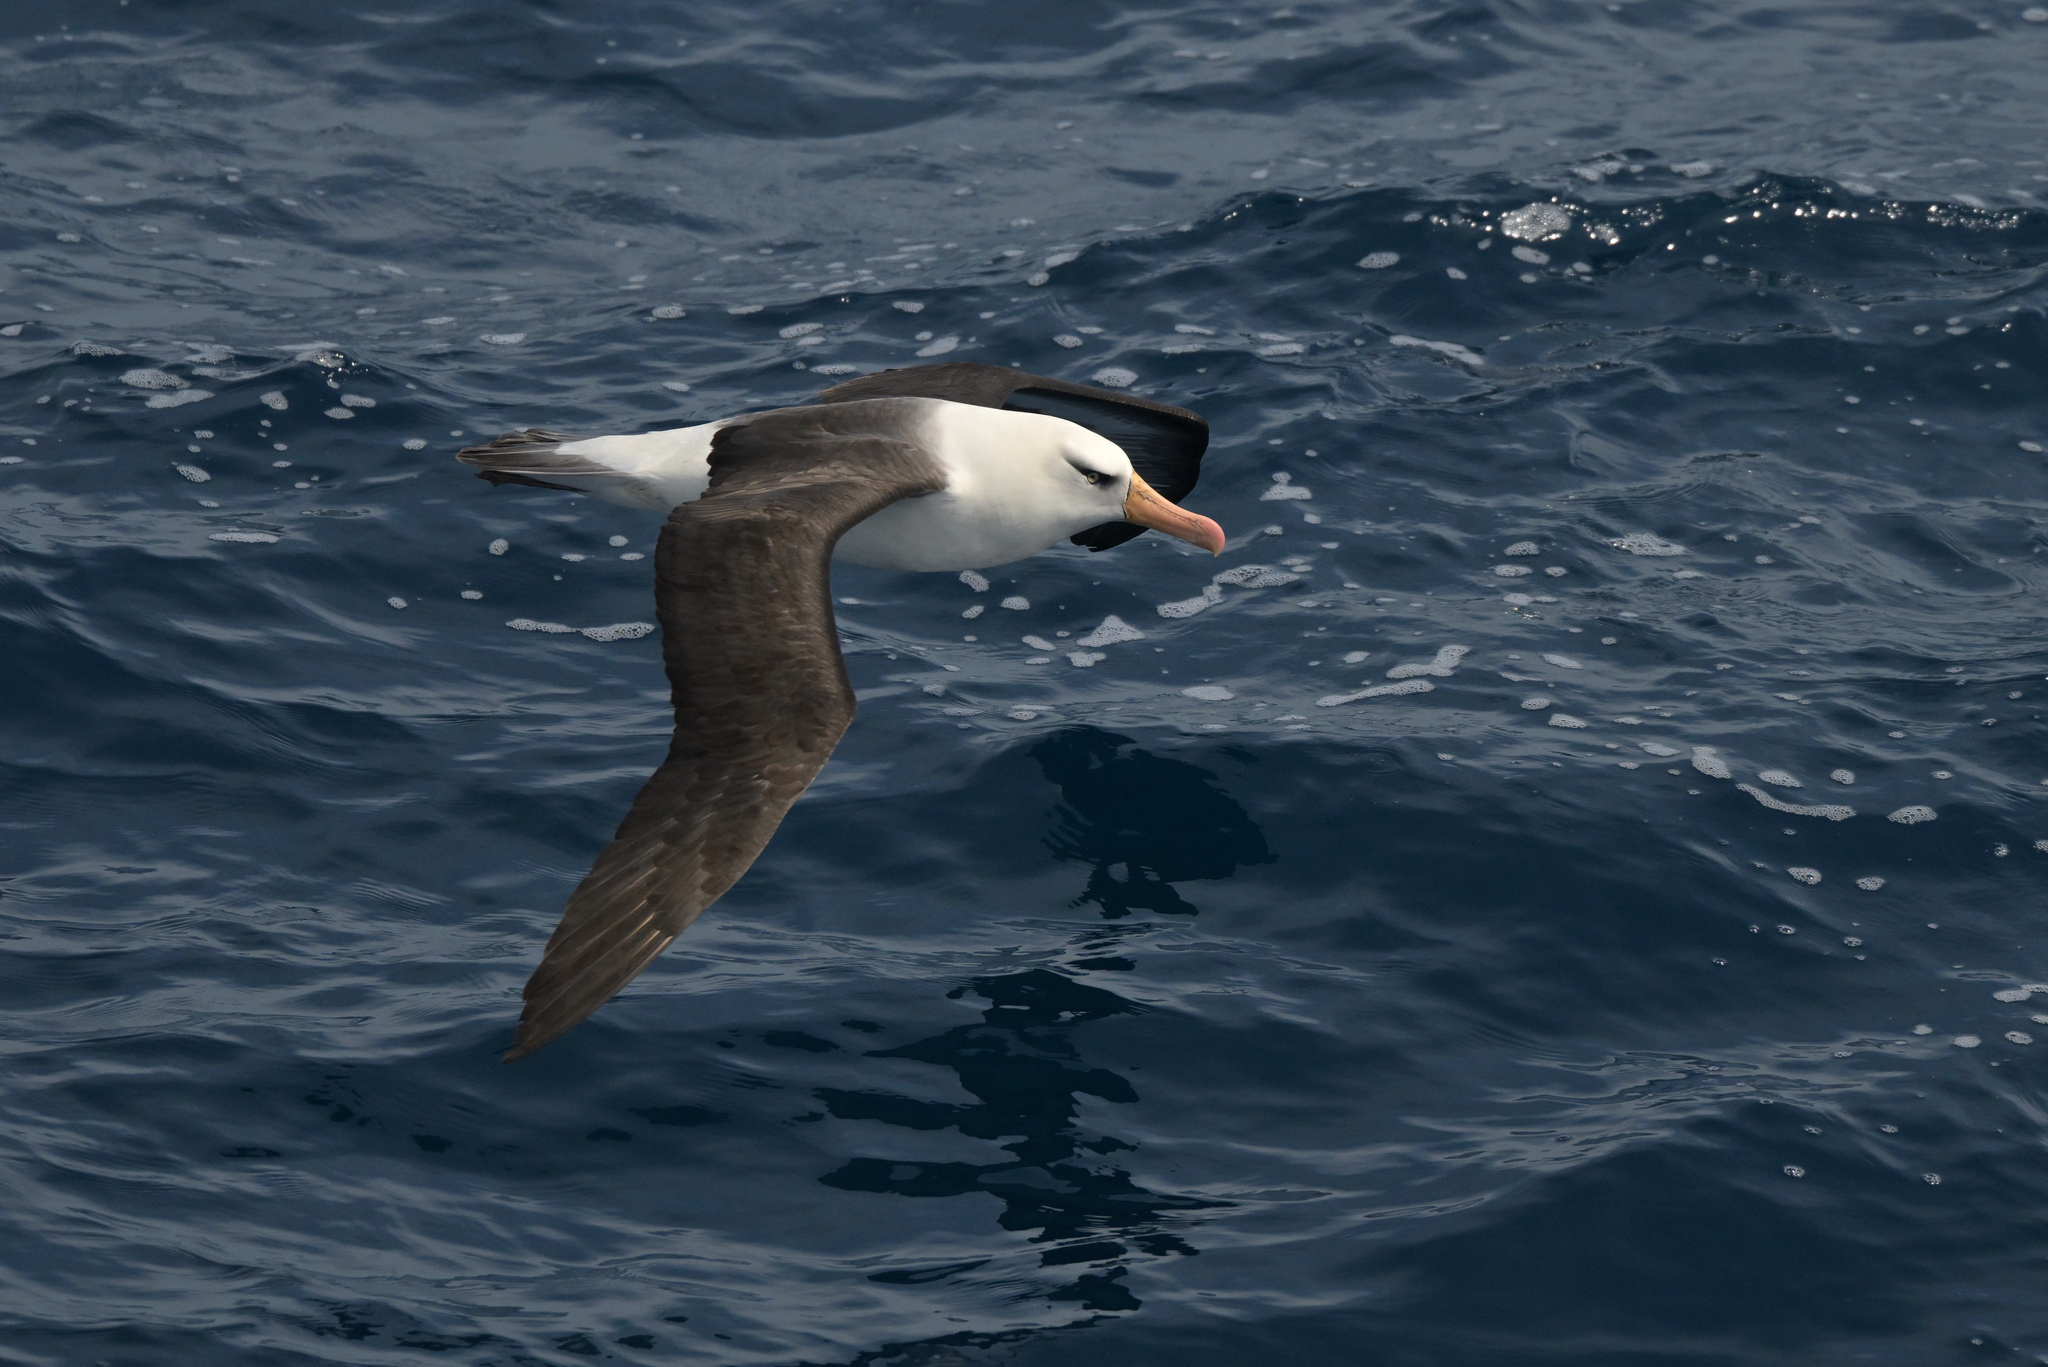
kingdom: Animalia
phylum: Chordata
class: Aves
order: Procellariiformes
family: Diomedeidae
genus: Thalassarche
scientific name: Thalassarche impavida
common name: Campbell albatross
